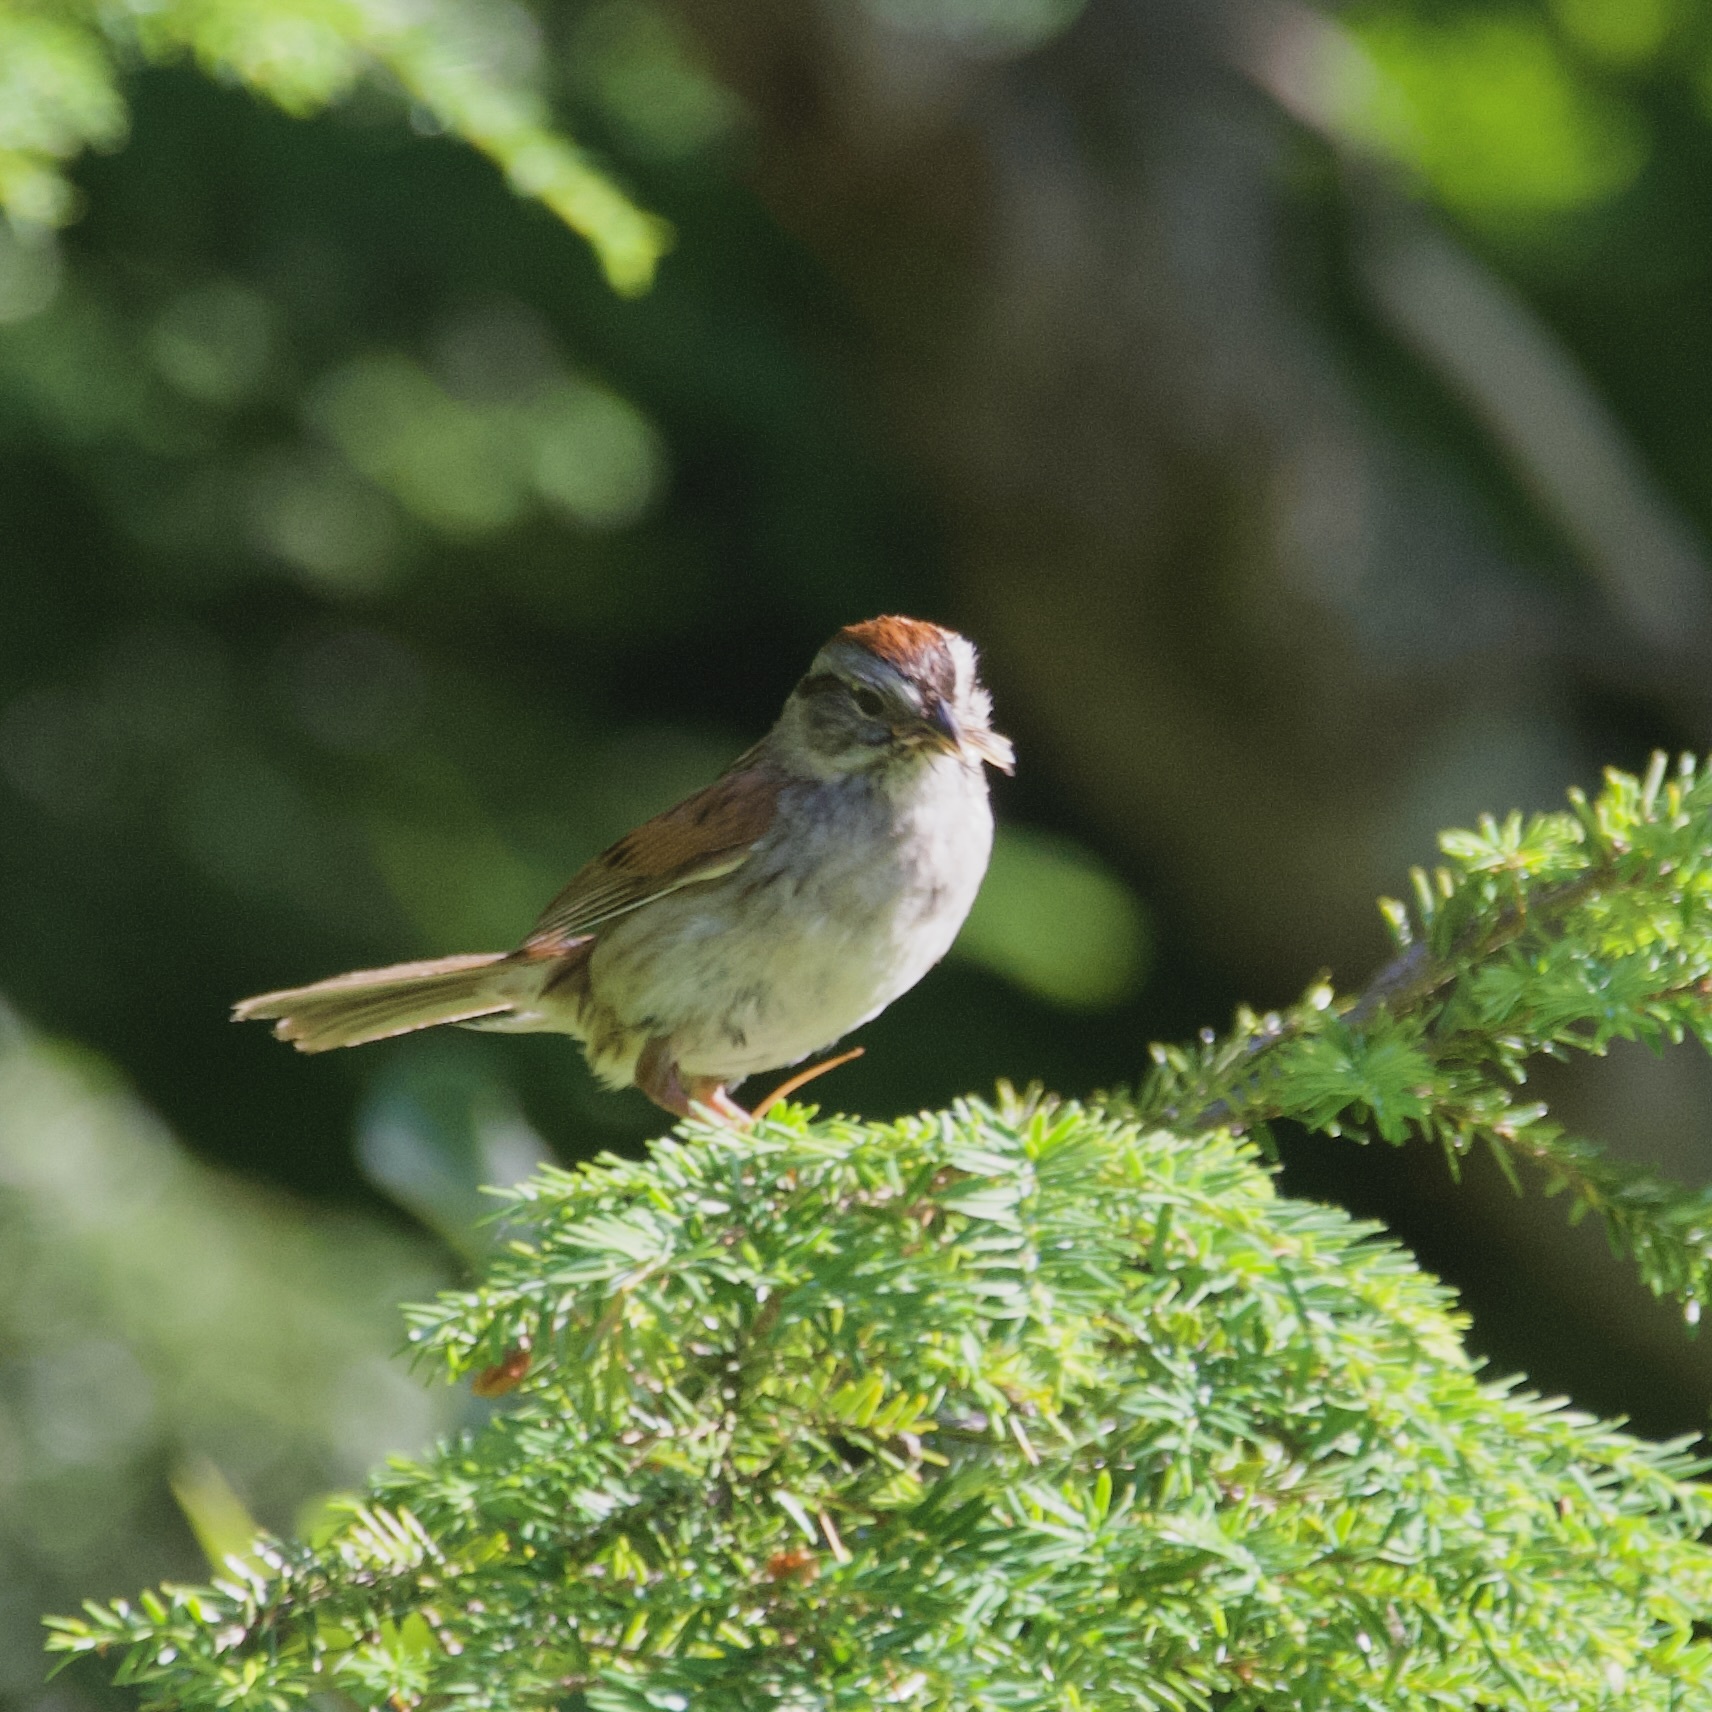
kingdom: Animalia
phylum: Chordata
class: Aves
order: Passeriformes
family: Passerellidae
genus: Spizella
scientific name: Spizella passerina
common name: Chipping sparrow
